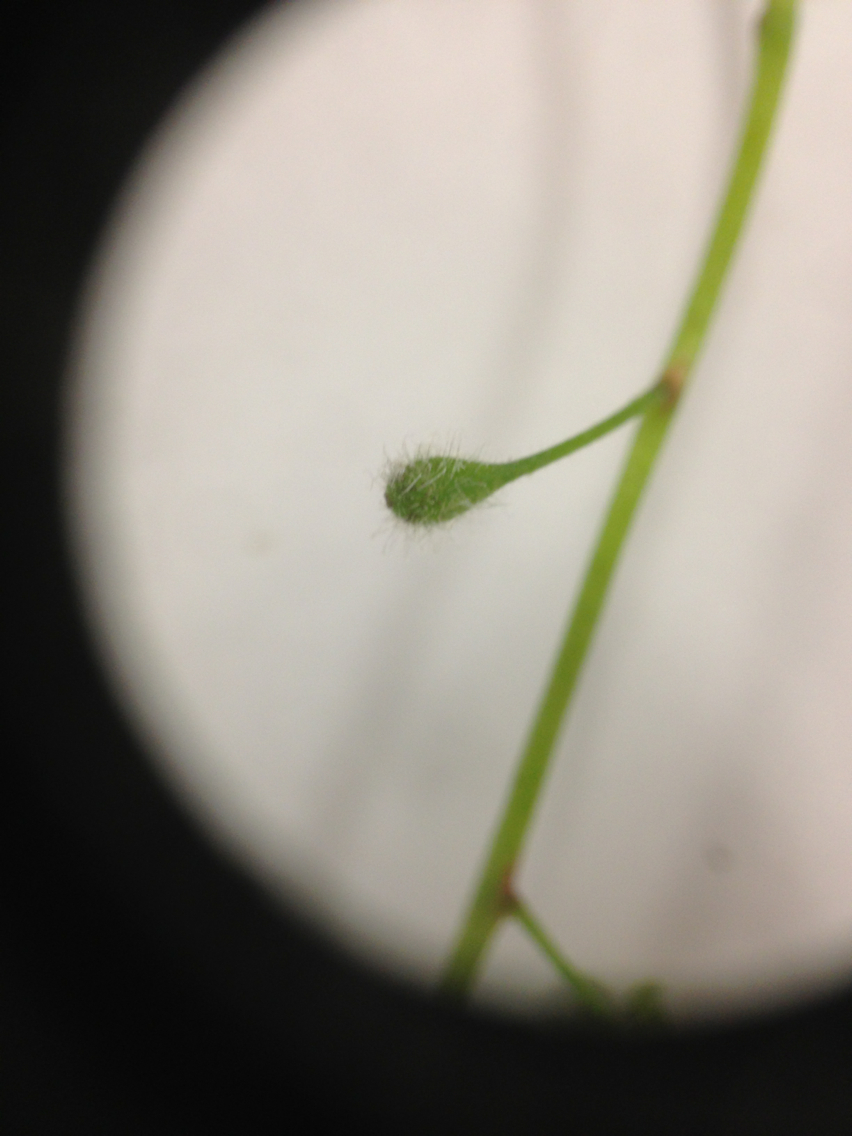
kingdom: Plantae
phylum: Tracheophyta
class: Magnoliopsida
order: Myrtales
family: Onagraceae
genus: Circaea
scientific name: Circaea canadensis
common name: Broad-leaved enchanter's nightshade
